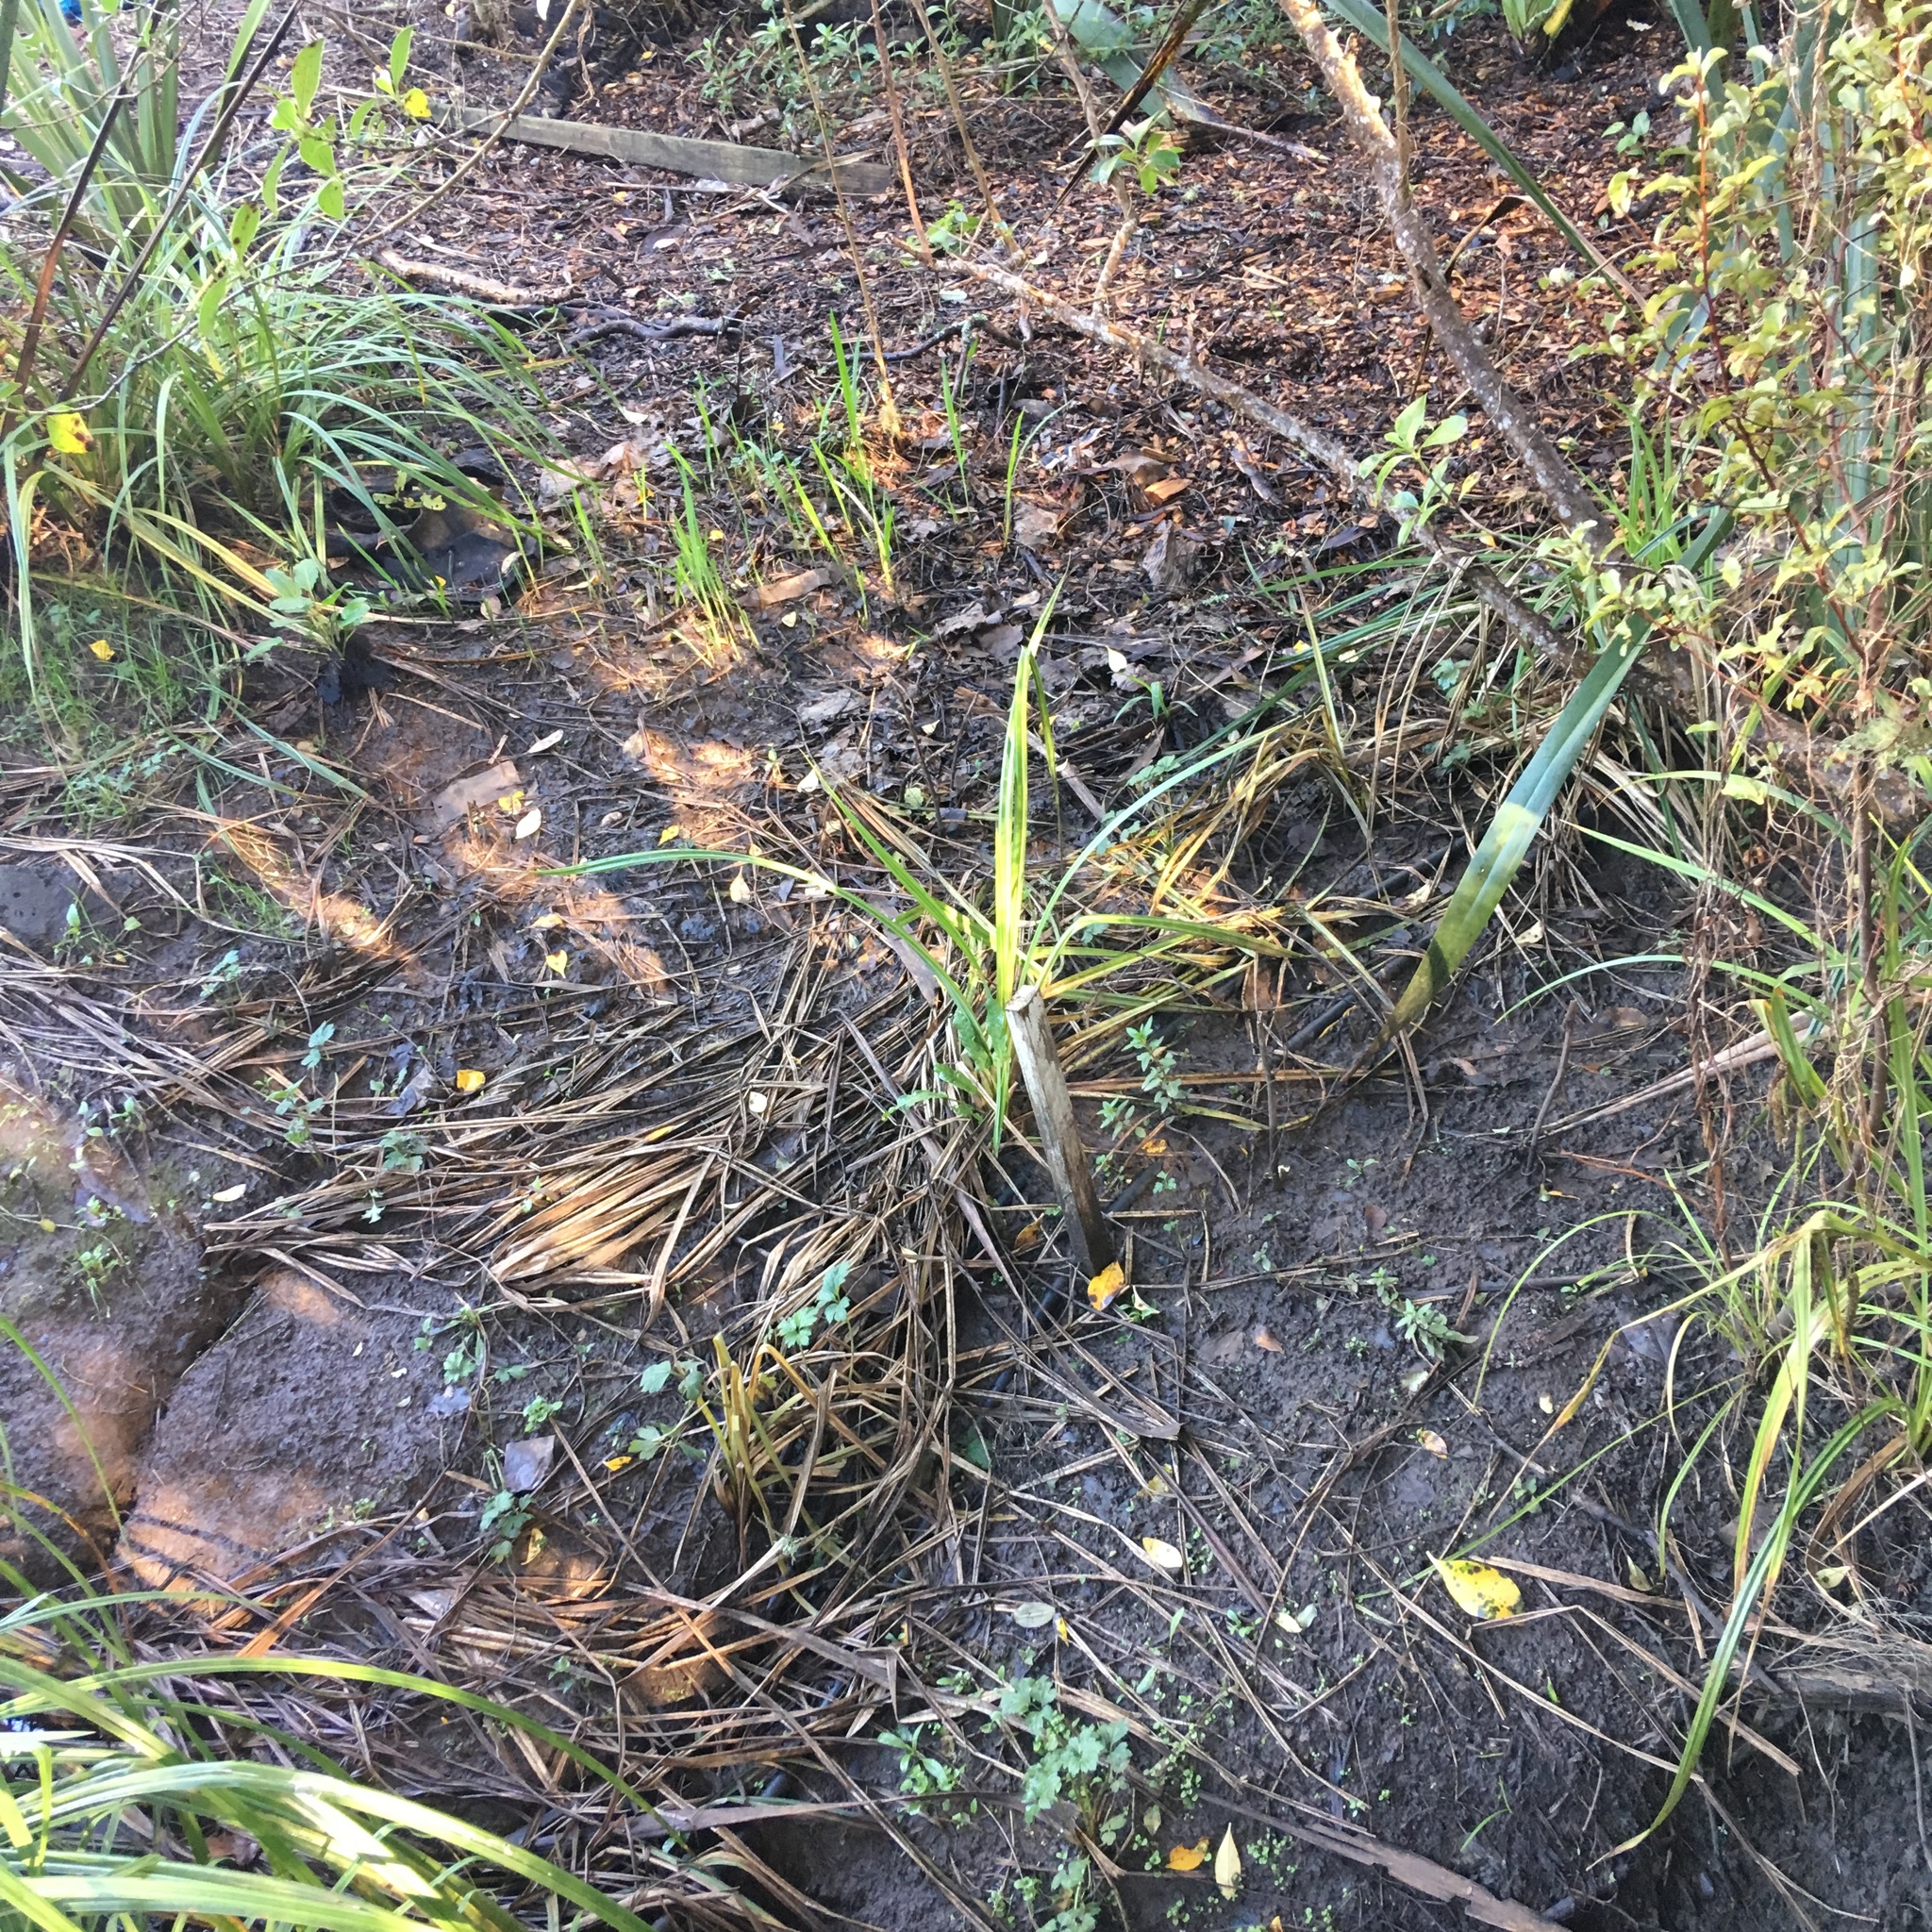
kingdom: Plantae
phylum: Tracheophyta
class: Magnoliopsida
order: Saxifragales
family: Haloragaceae
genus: Haloragis
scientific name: Haloragis erecta
